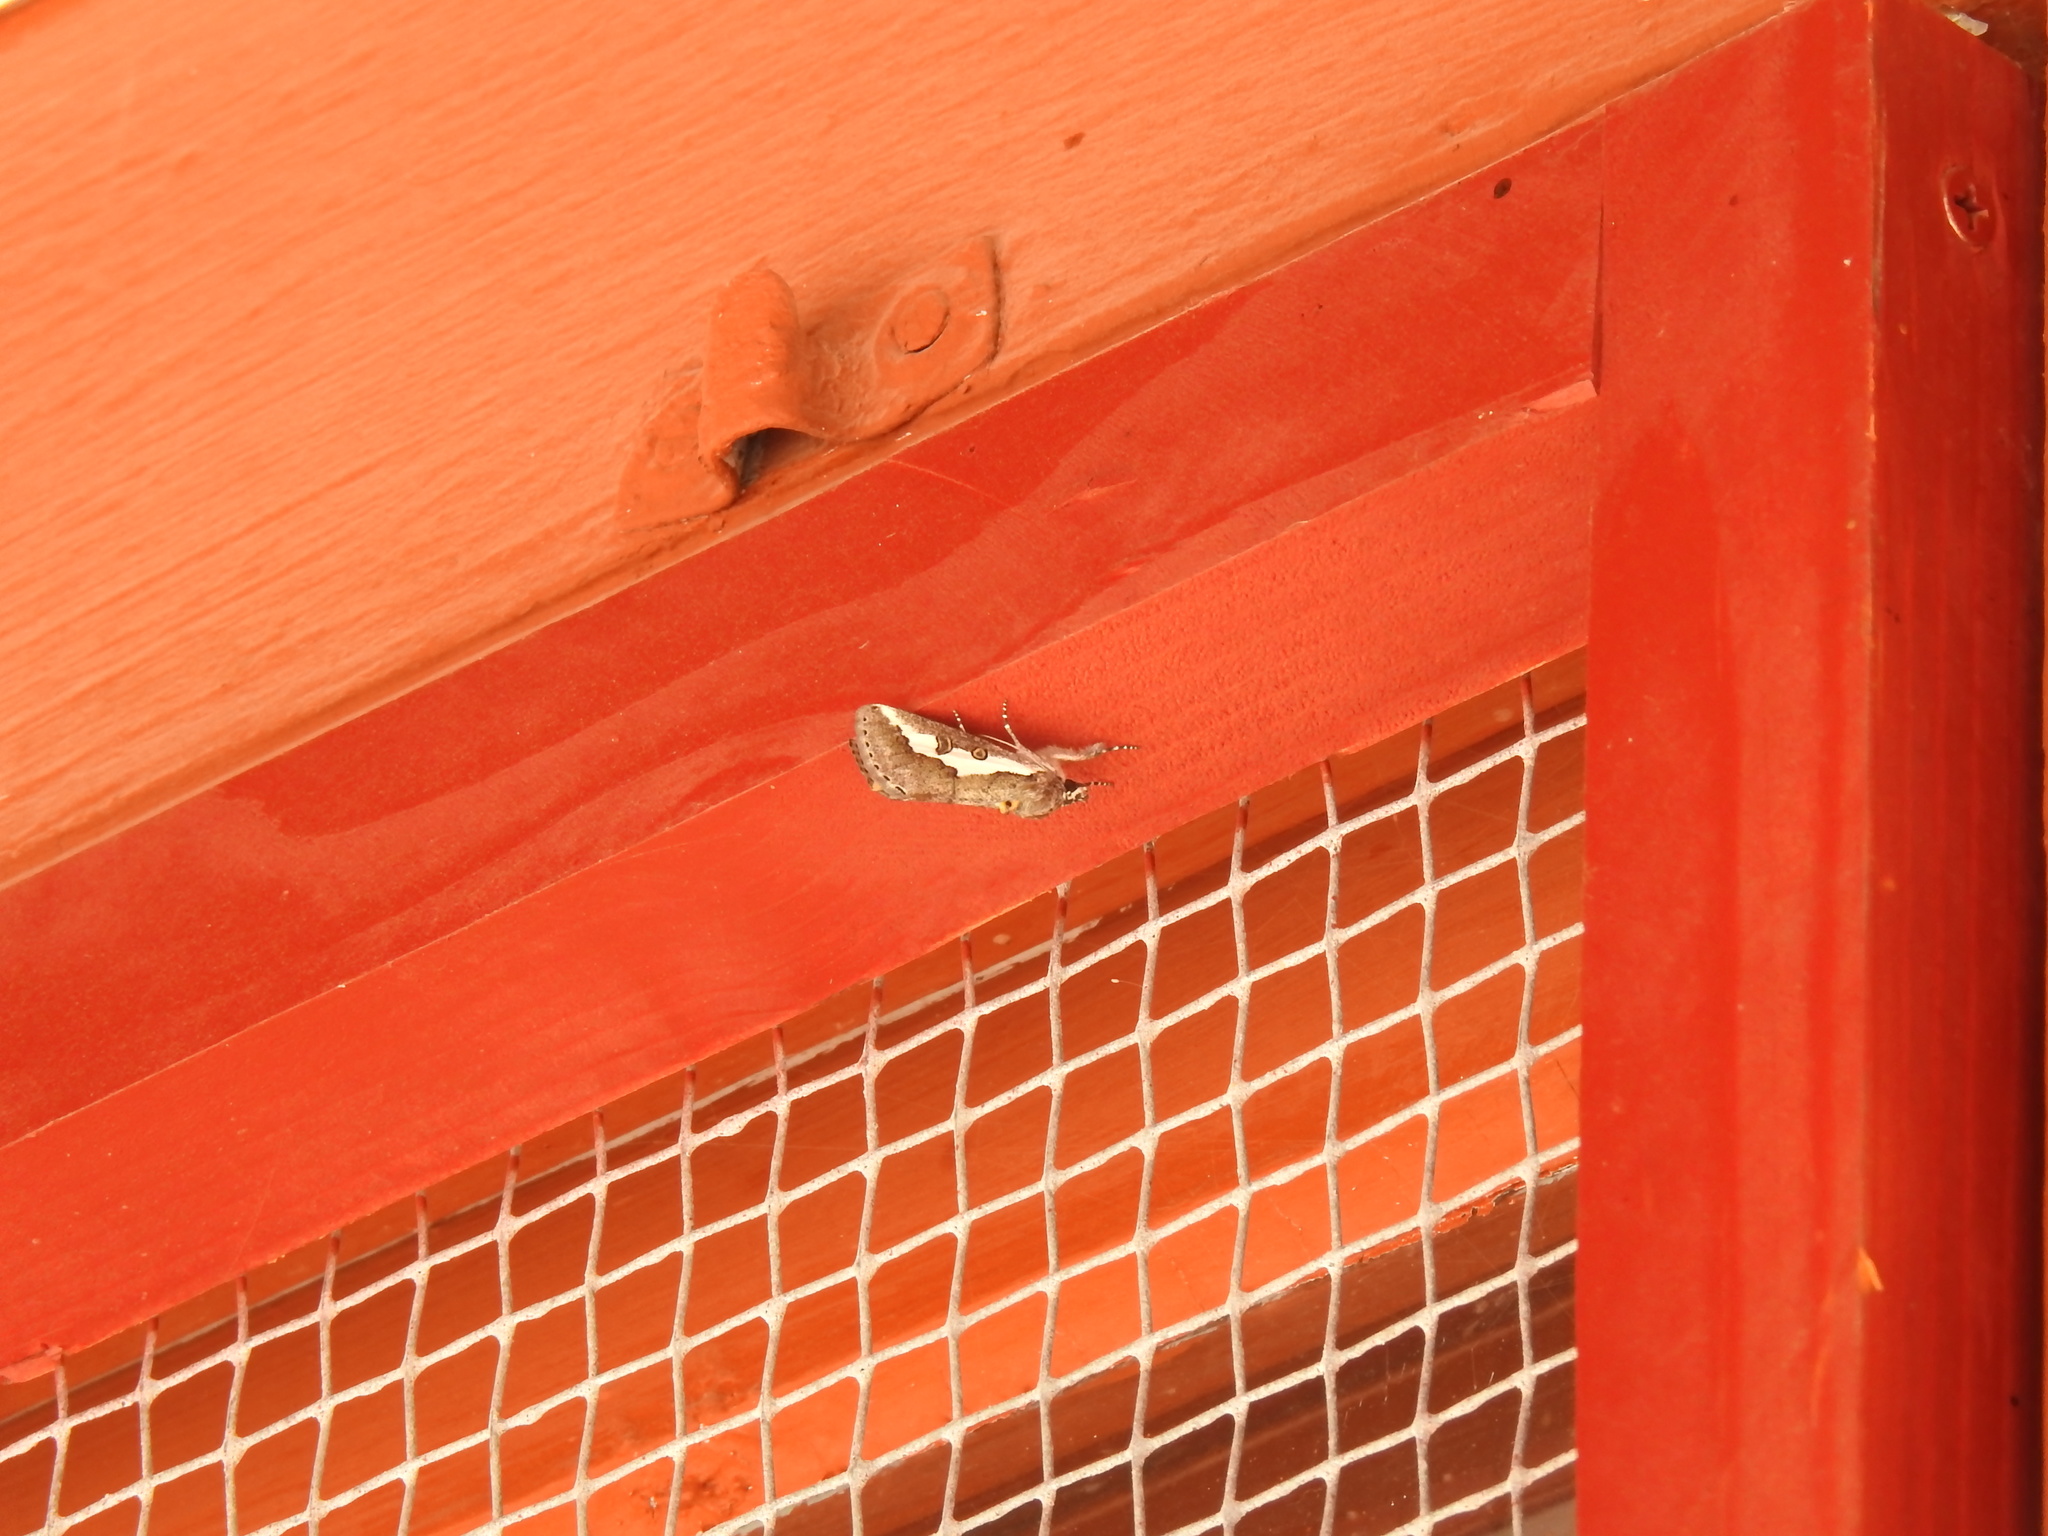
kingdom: Animalia
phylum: Arthropoda
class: Insecta
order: Lepidoptera
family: Noctuidae
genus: Euscirrhopterus
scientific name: Euscirrhopterus gloveri
